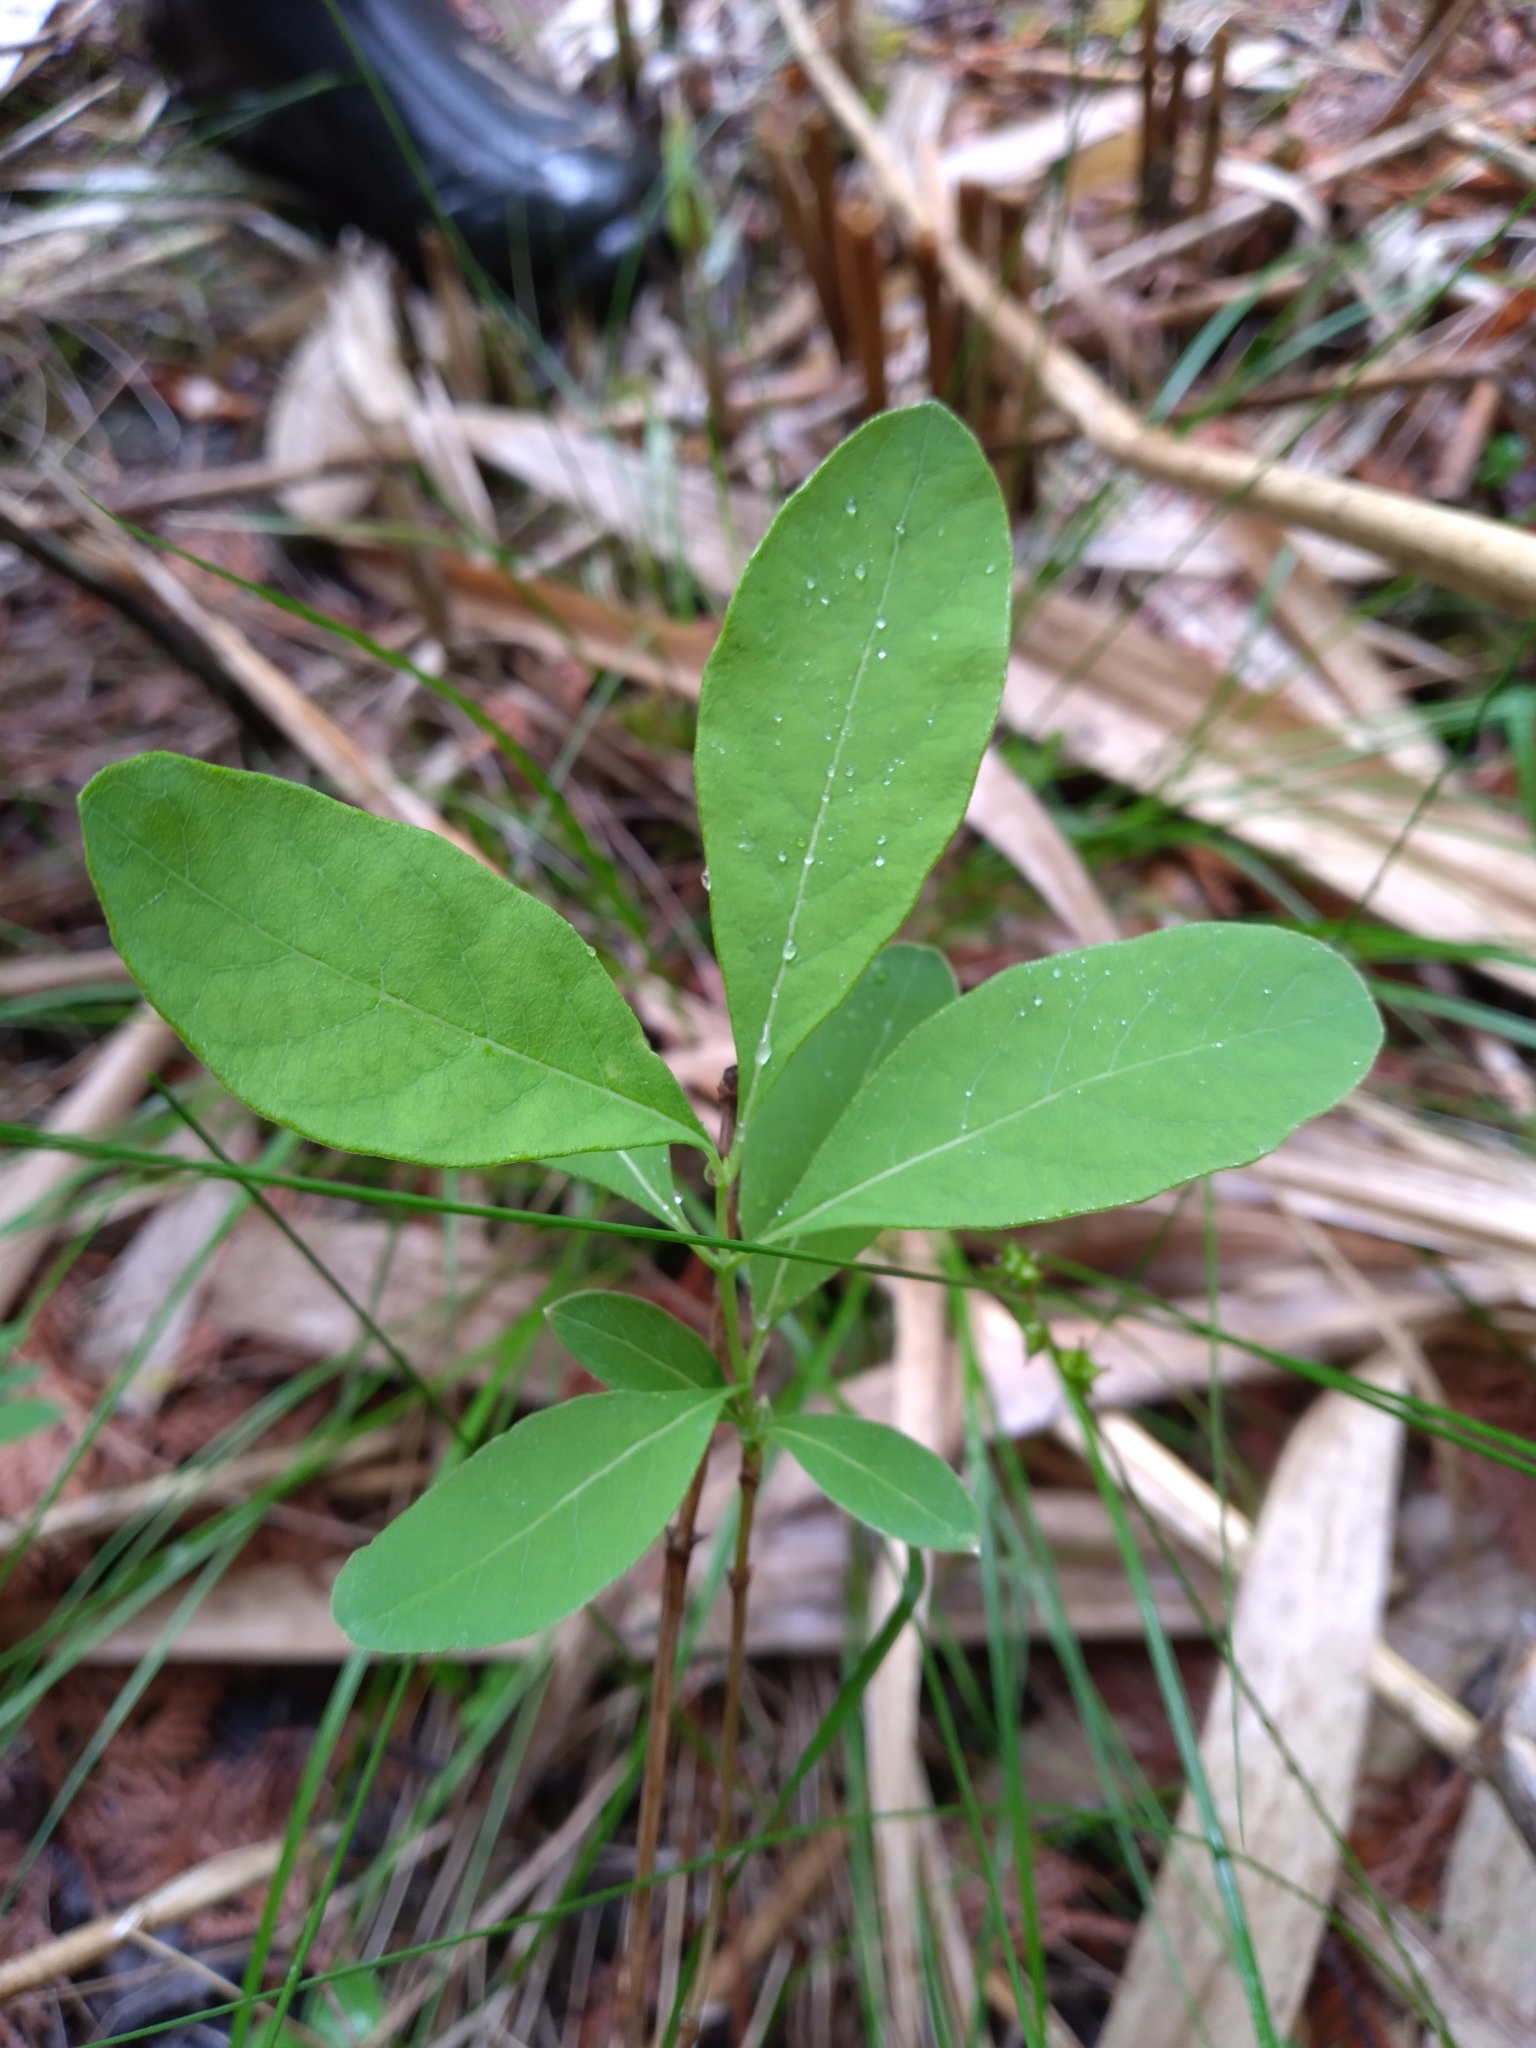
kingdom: Plantae
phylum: Tracheophyta
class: Magnoliopsida
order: Dipsacales
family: Caprifoliaceae
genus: Lonicera
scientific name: Lonicera oblongifolia
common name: Swamp fly honeysuckle
